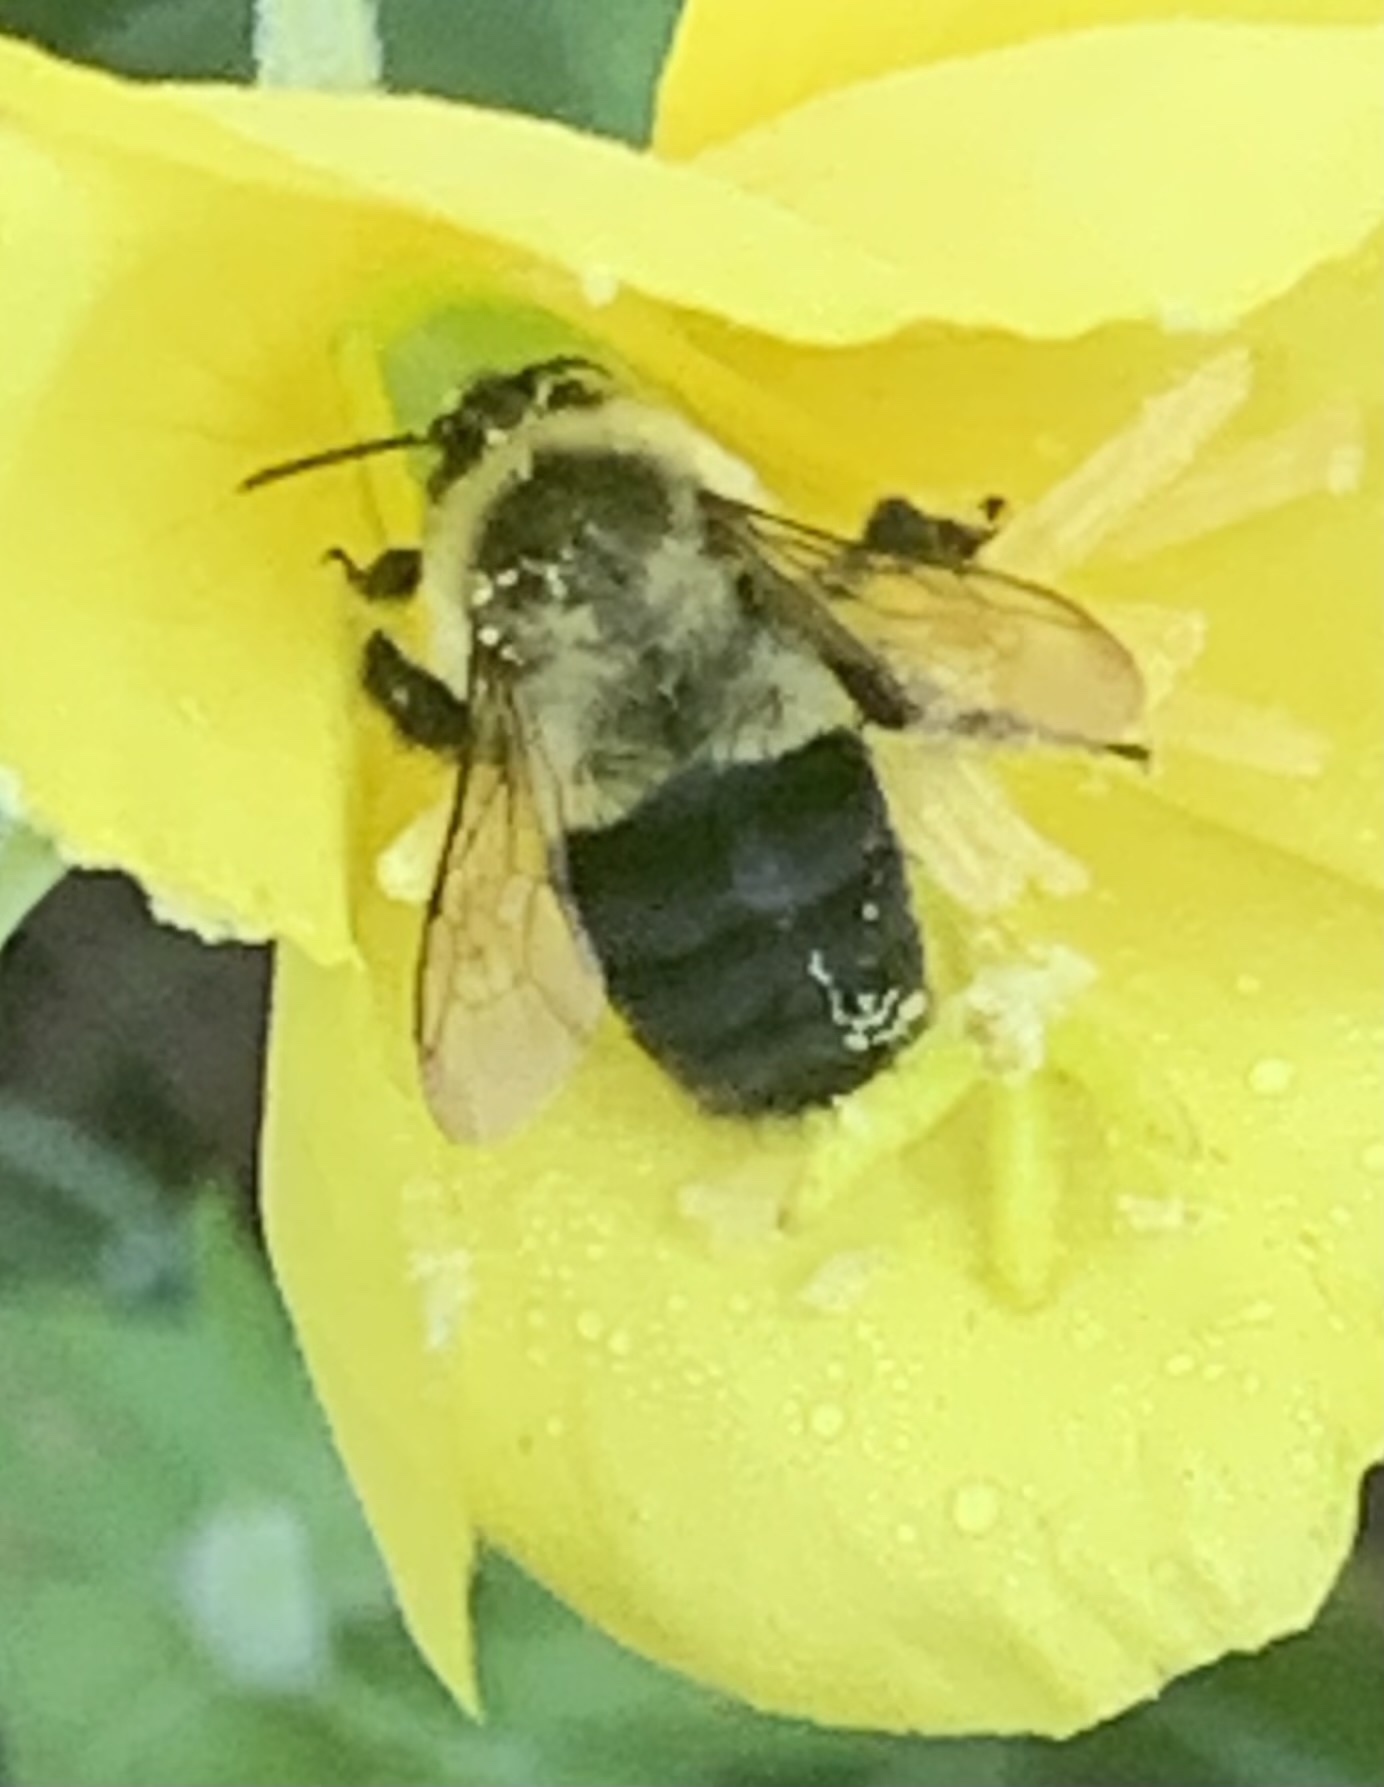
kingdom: Animalia
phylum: Arthropoda
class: Insecta
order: Hymenoptera
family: Apidae
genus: Bombus
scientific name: Bombus impatiens
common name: Common eastern bumble bee
